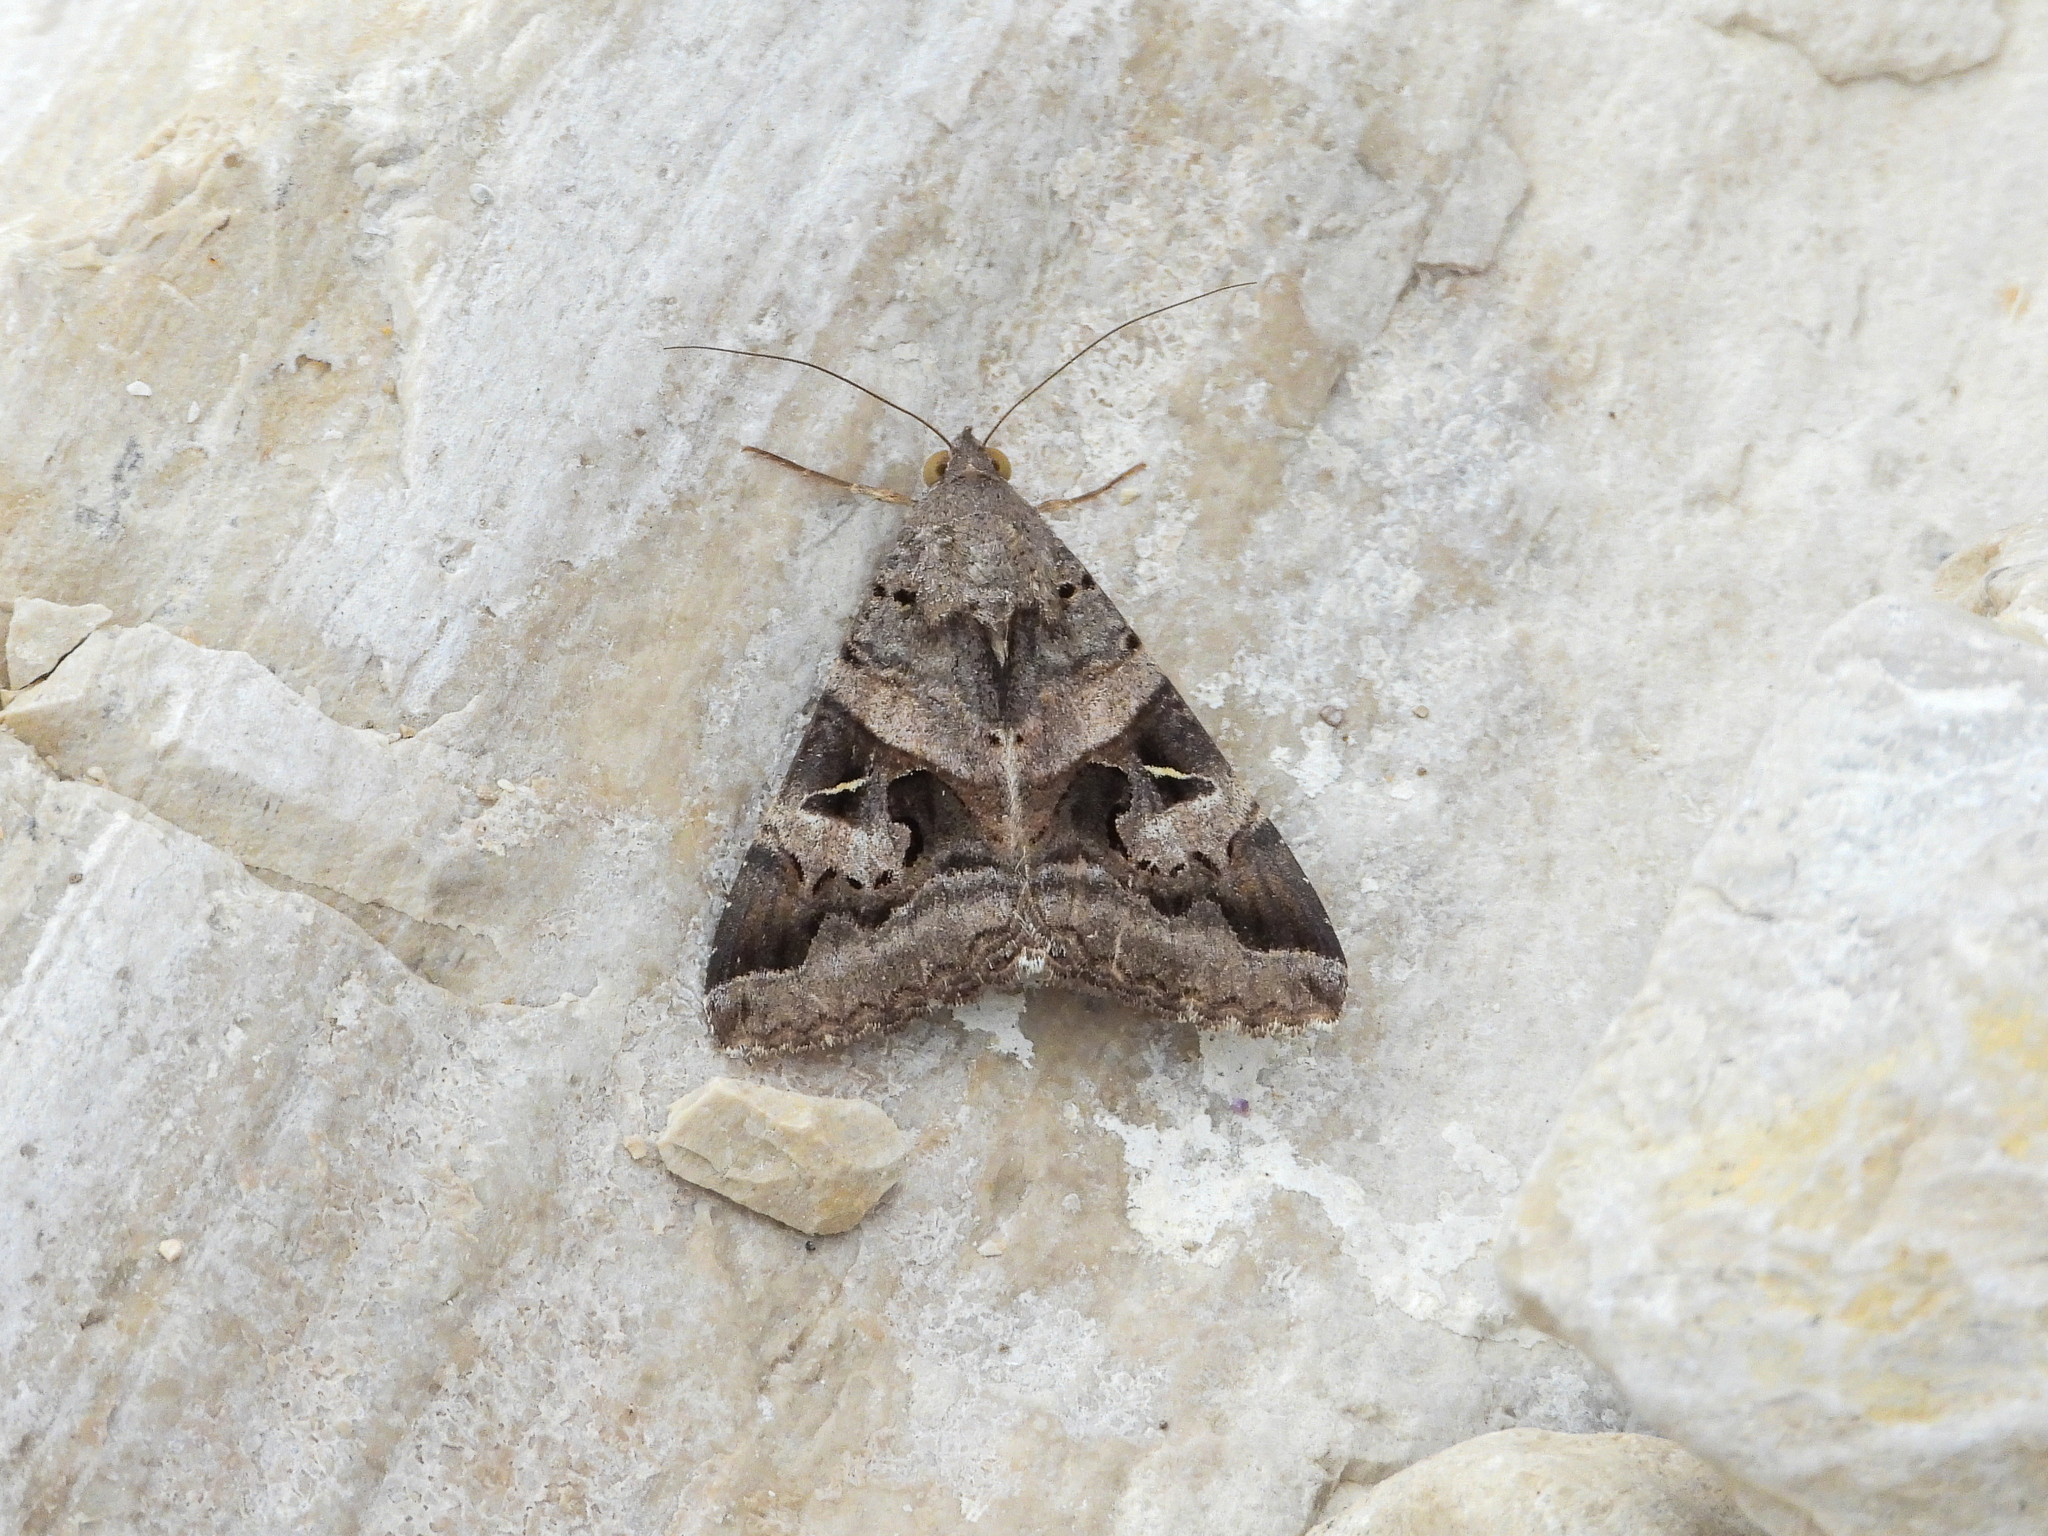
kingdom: Animalia
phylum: Arthropoda
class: Insecta
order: Lepidoptera
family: Erebidae
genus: Melipotis
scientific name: Melipotis indomita
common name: Moth
